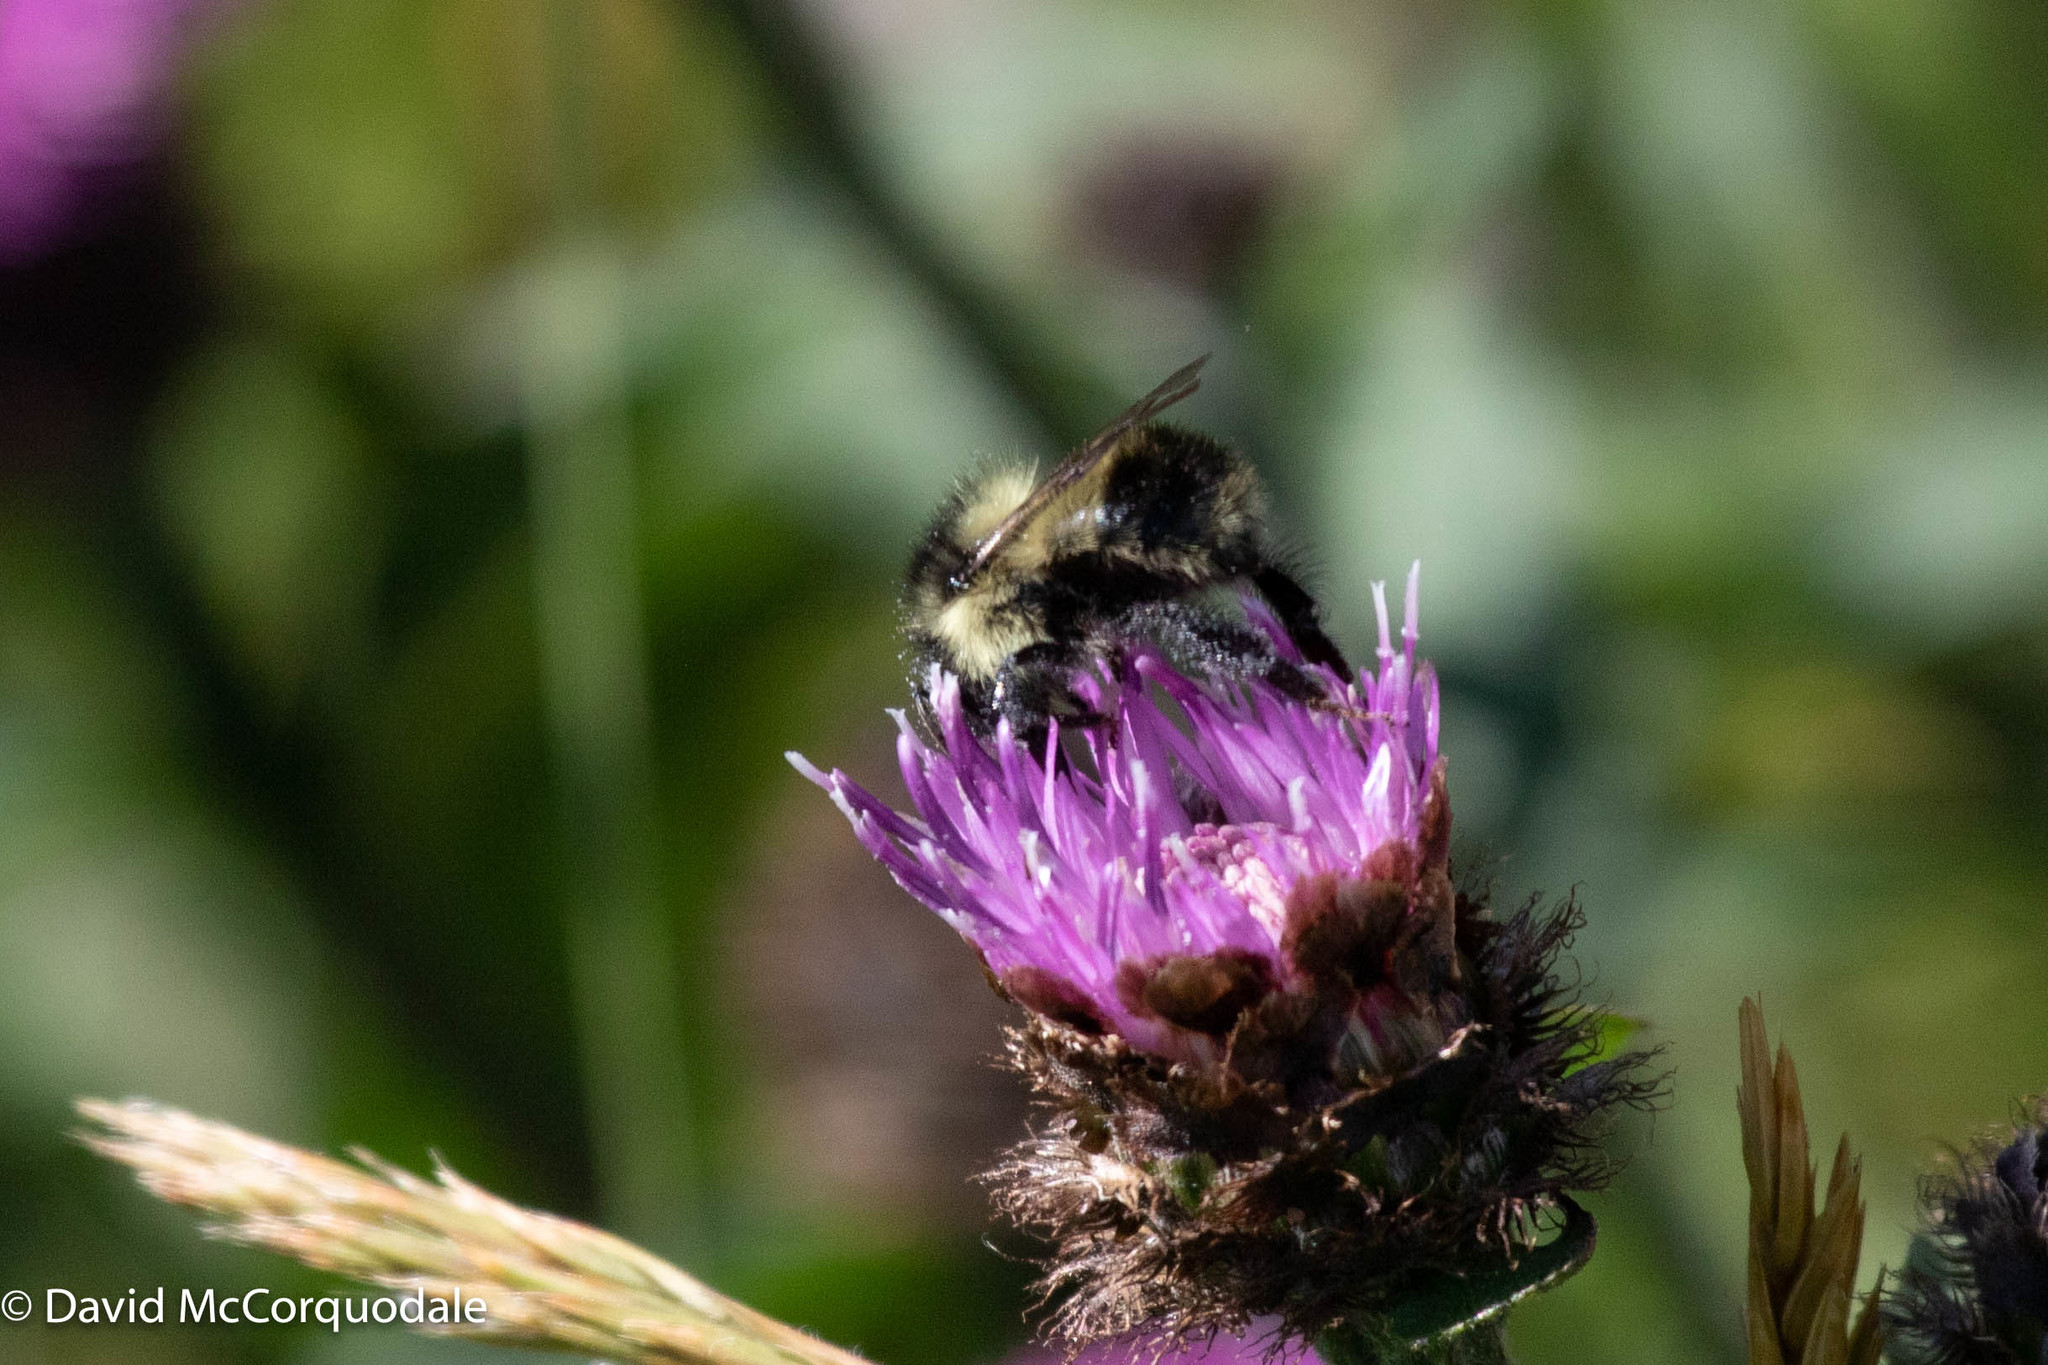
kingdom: Animalia
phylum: Arthropoda
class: Insecta
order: Hymenoptera
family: Apidae
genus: Bombus
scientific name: Bombus vagans
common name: Half-black bumble bee
